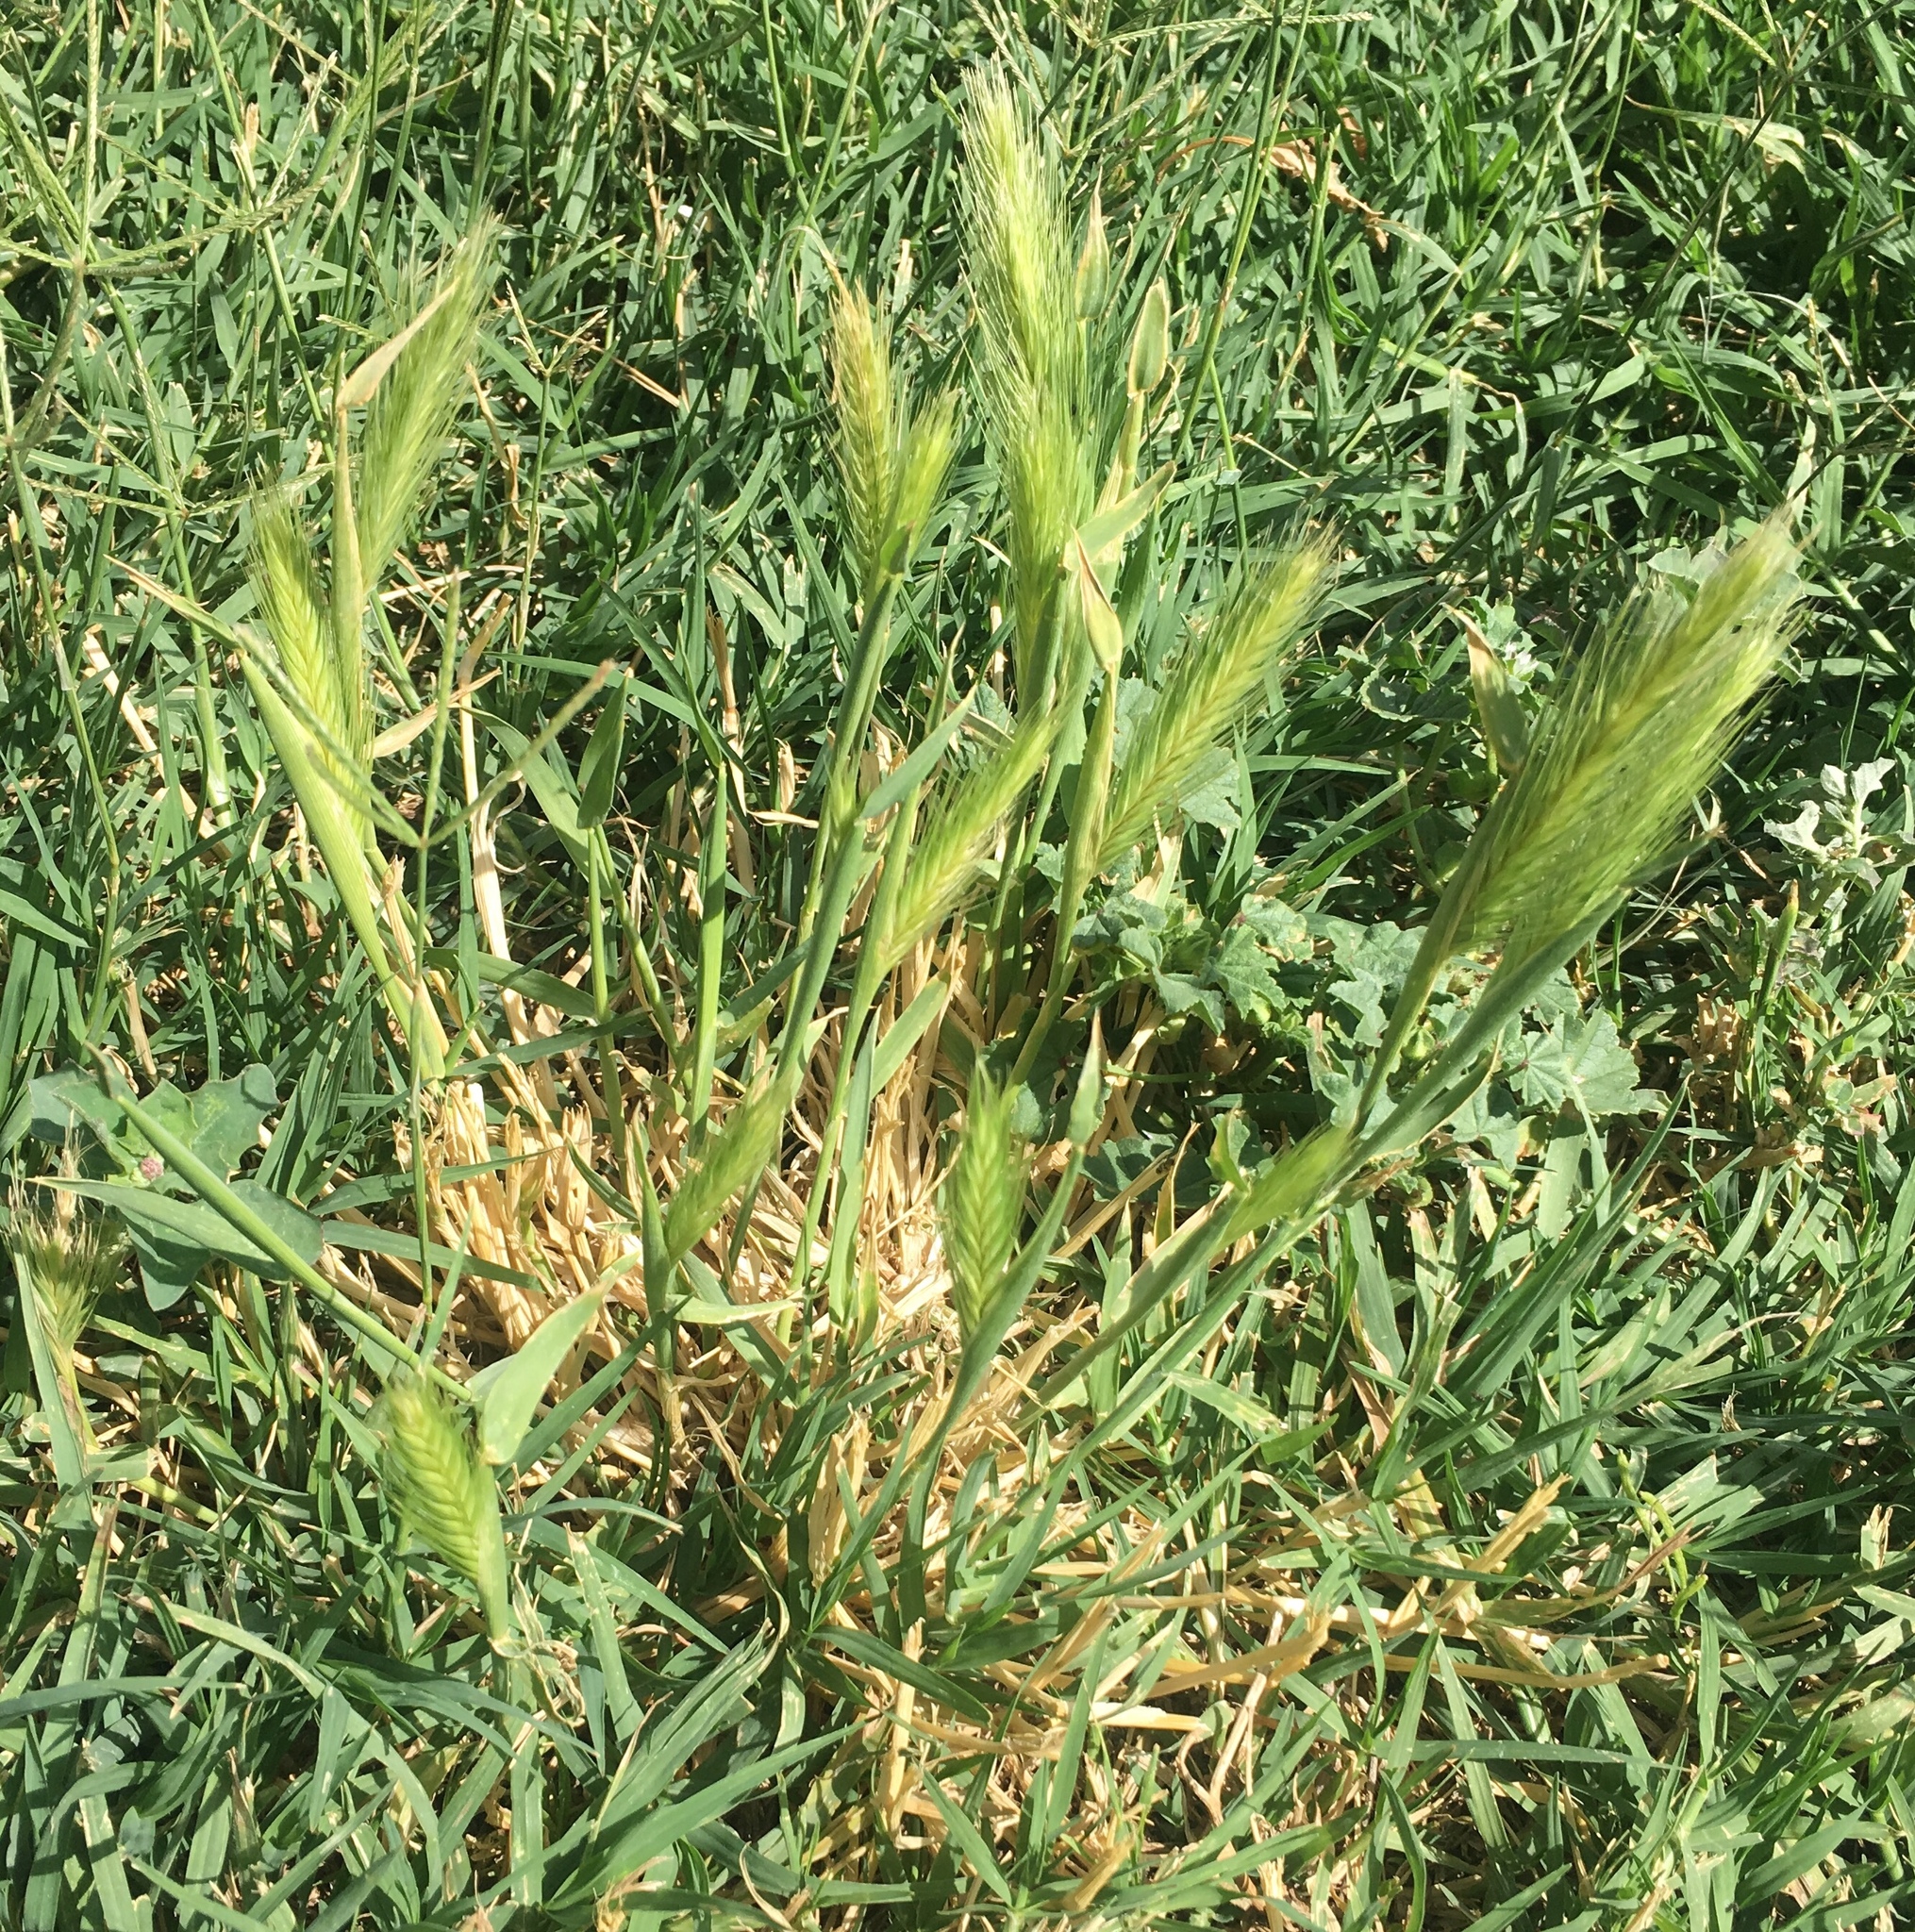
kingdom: Plantae
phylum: Tracheophyta
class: Liliopsida
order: Poales
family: Poaceae
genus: Hordeum
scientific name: Hordeum murinum
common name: Wall barley
